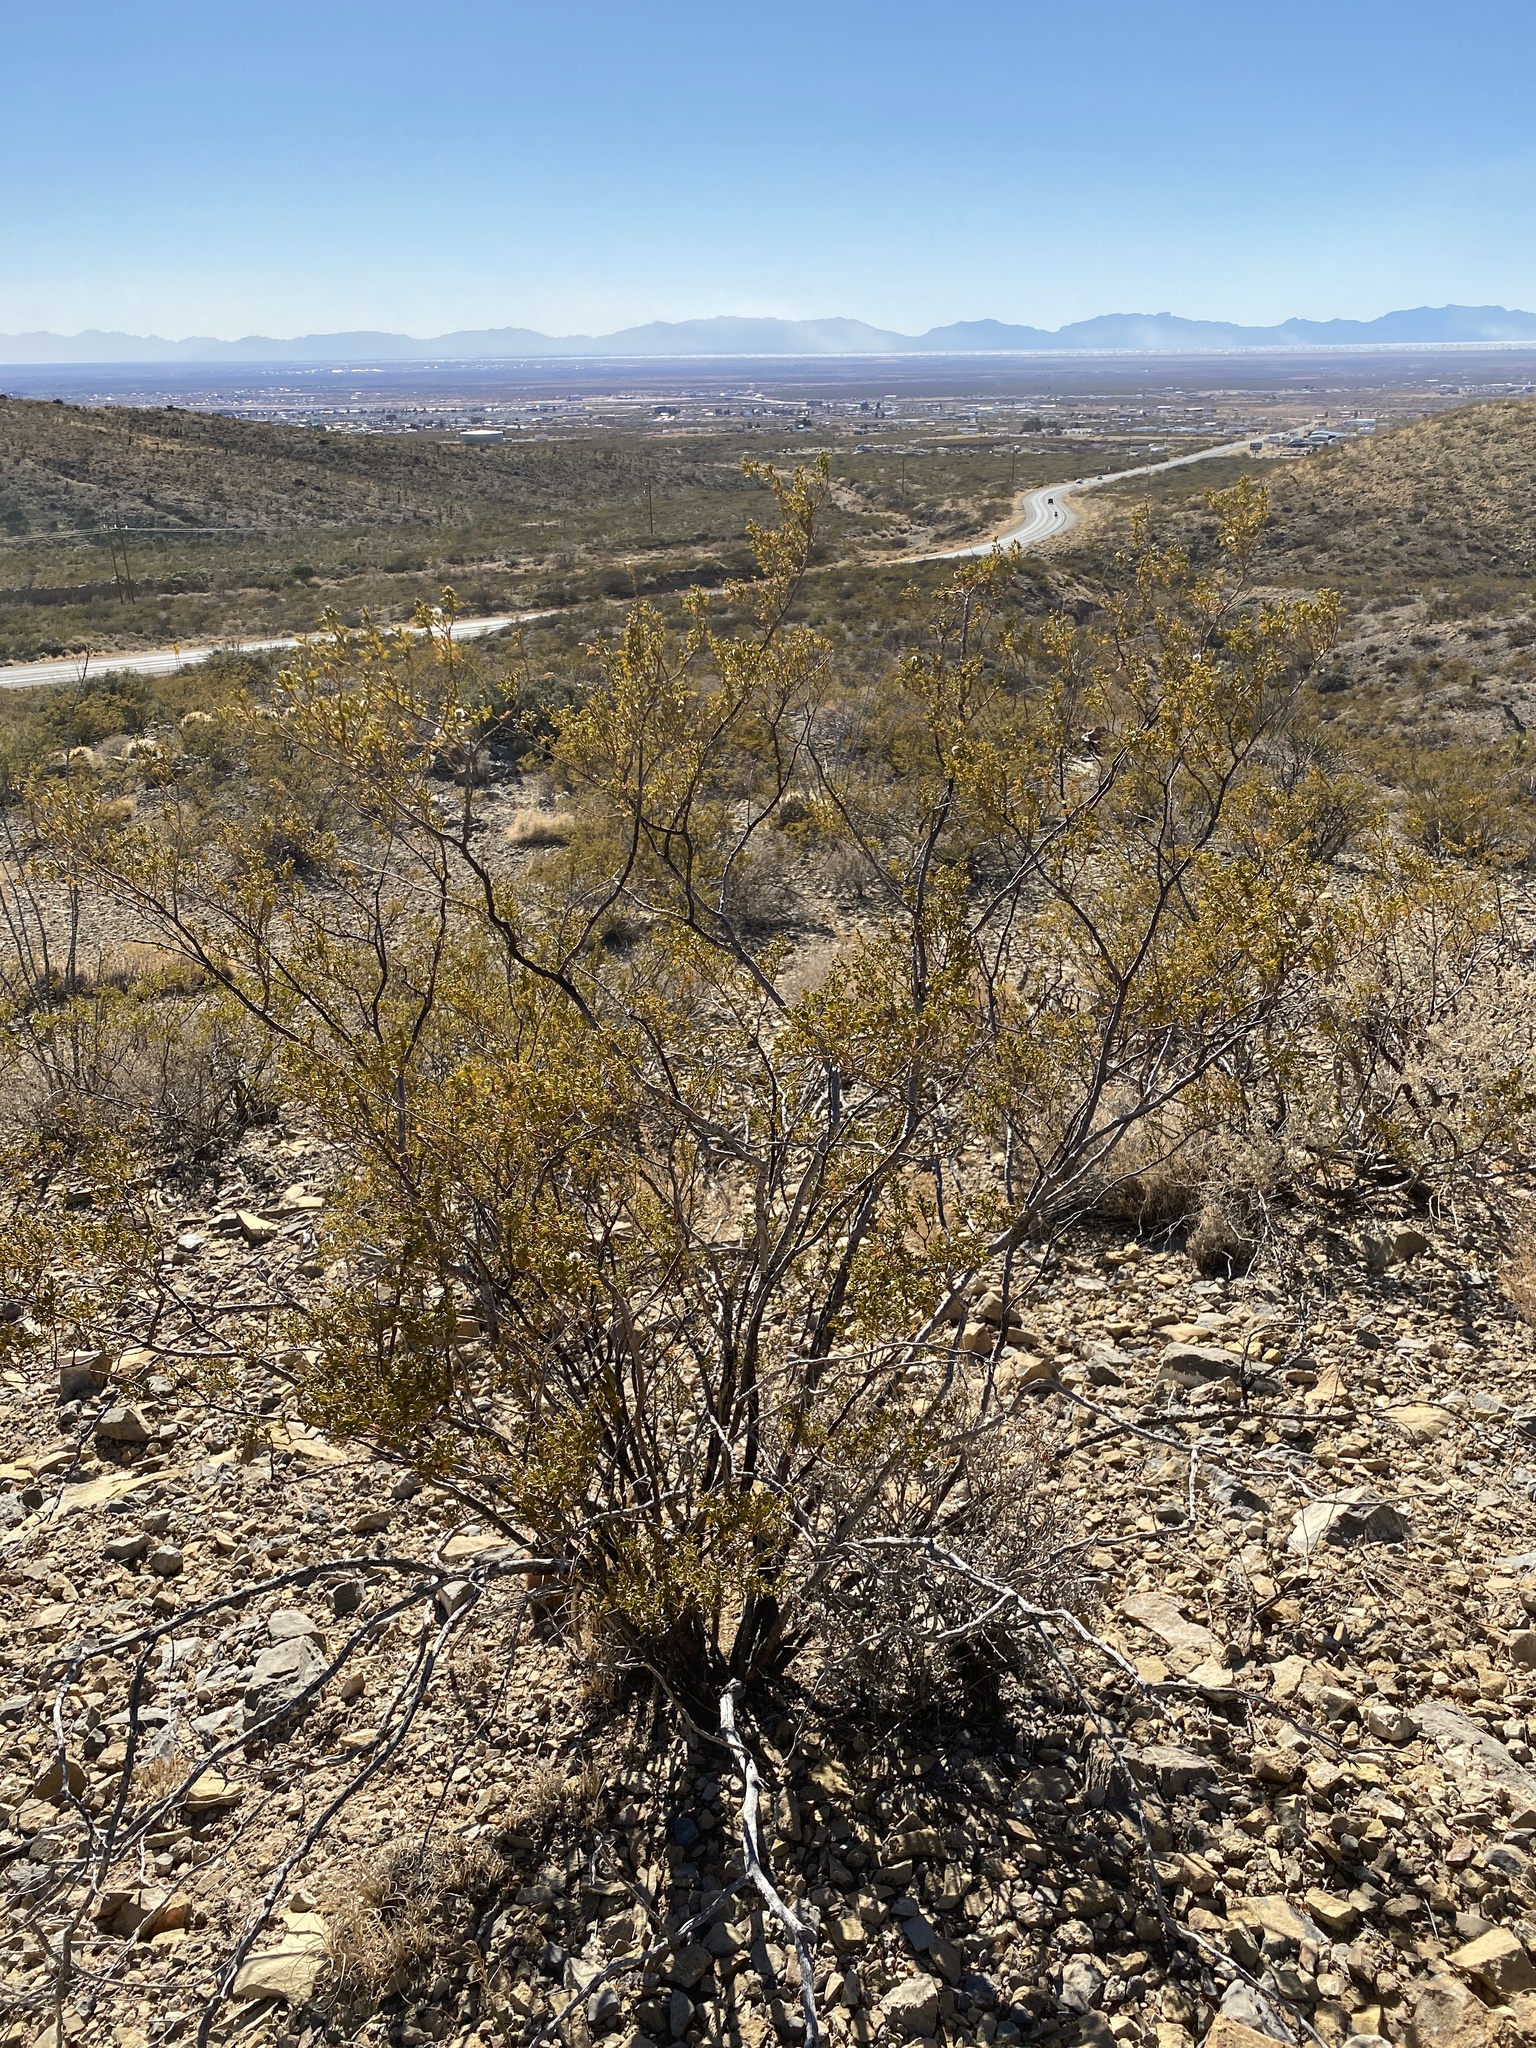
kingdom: Plantae
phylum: Tracheophyta
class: Magnoliopsida
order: Zygophyllales
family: Zygophyllaceae
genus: Larrea
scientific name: Larrea tridentata
